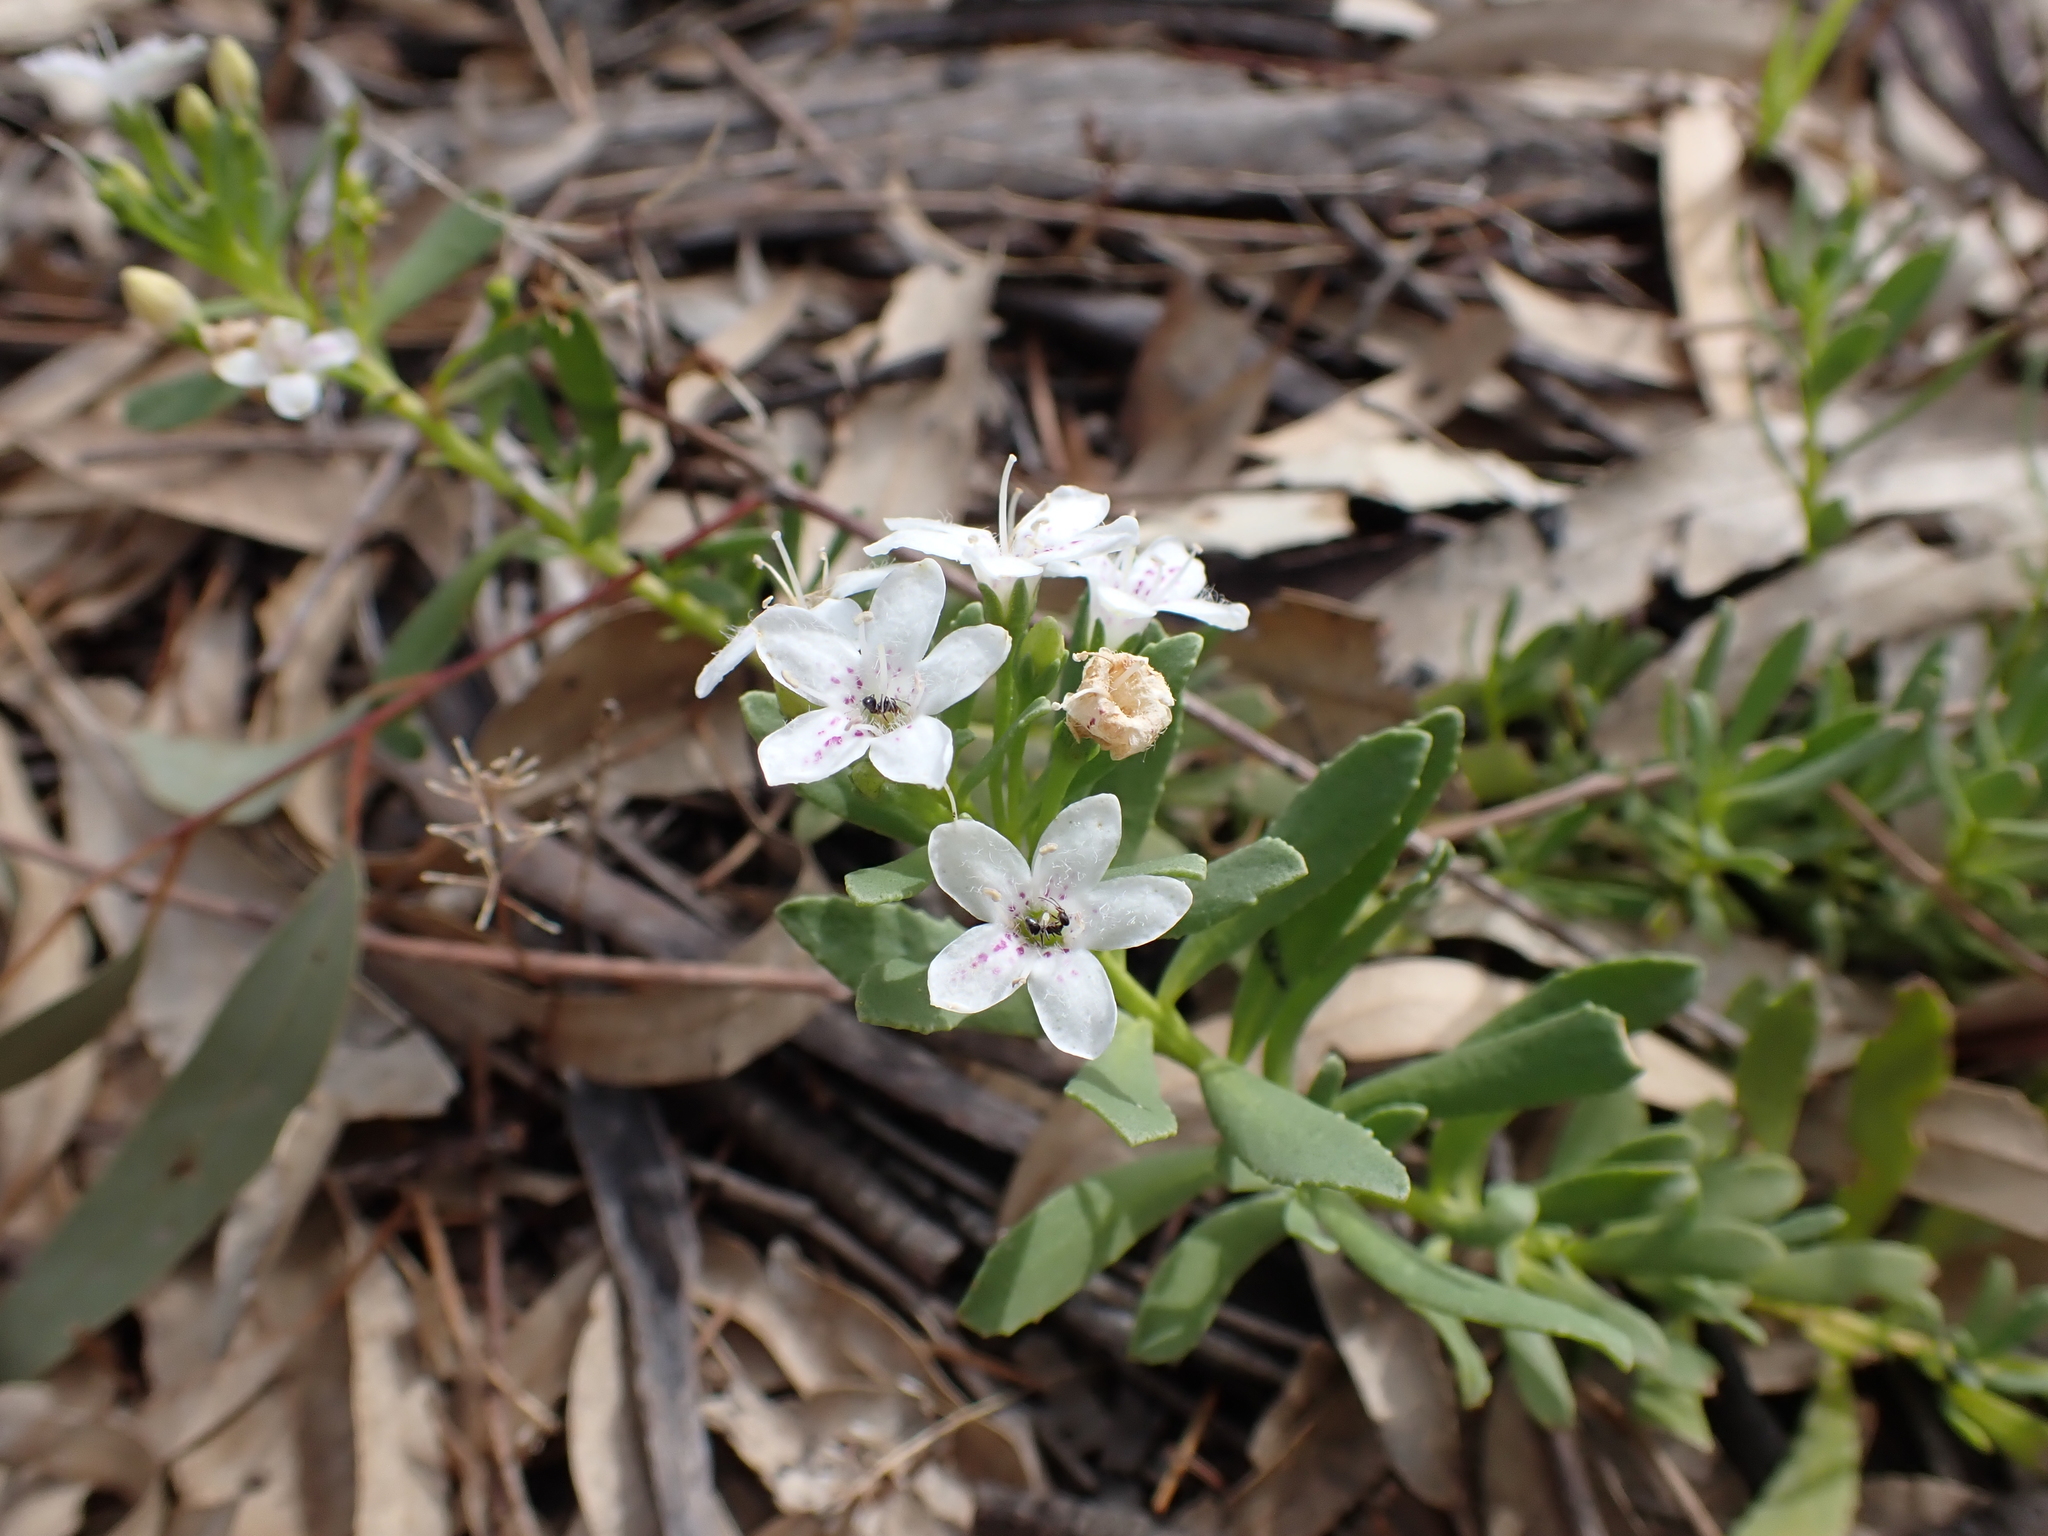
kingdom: Plantae
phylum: Tracheophyta
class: Magnoliopsida
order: Lamiales
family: Scrophulariaceae
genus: Myoporum
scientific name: Myoporum parvifolium
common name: Dwarf native-myrtle
